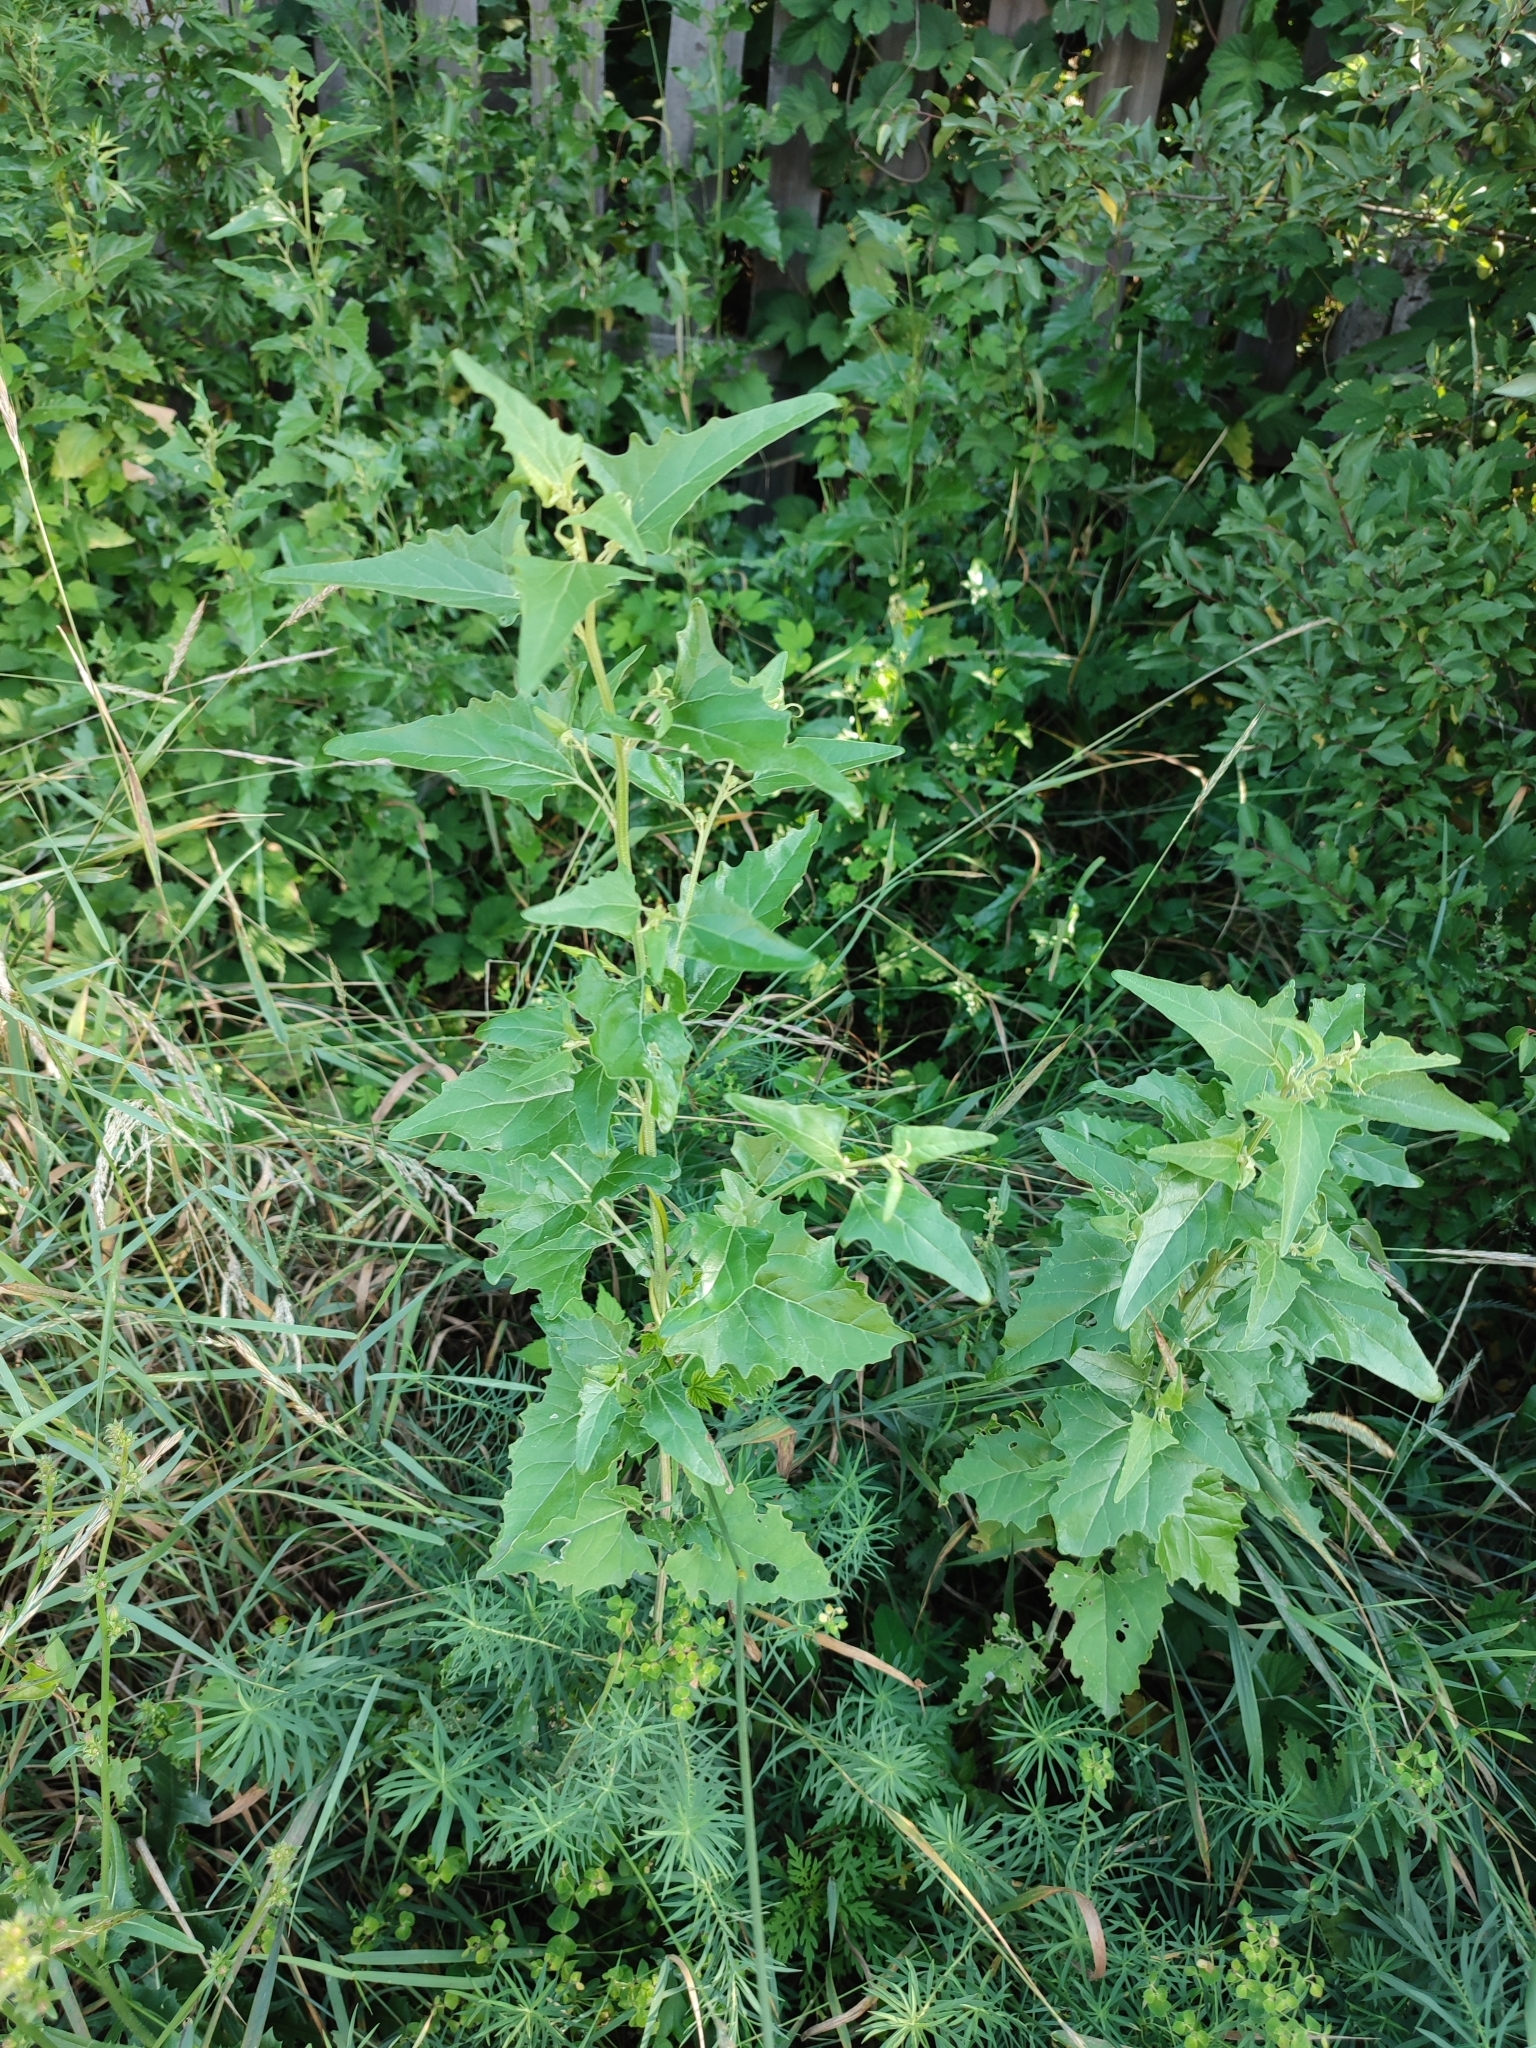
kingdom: Plantae
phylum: Tracheophyta
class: Magnoliopsida
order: Caryophyllales
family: Amaranthaceae
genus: Atriplex
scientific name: Atriplex sagittata
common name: Purple orache
